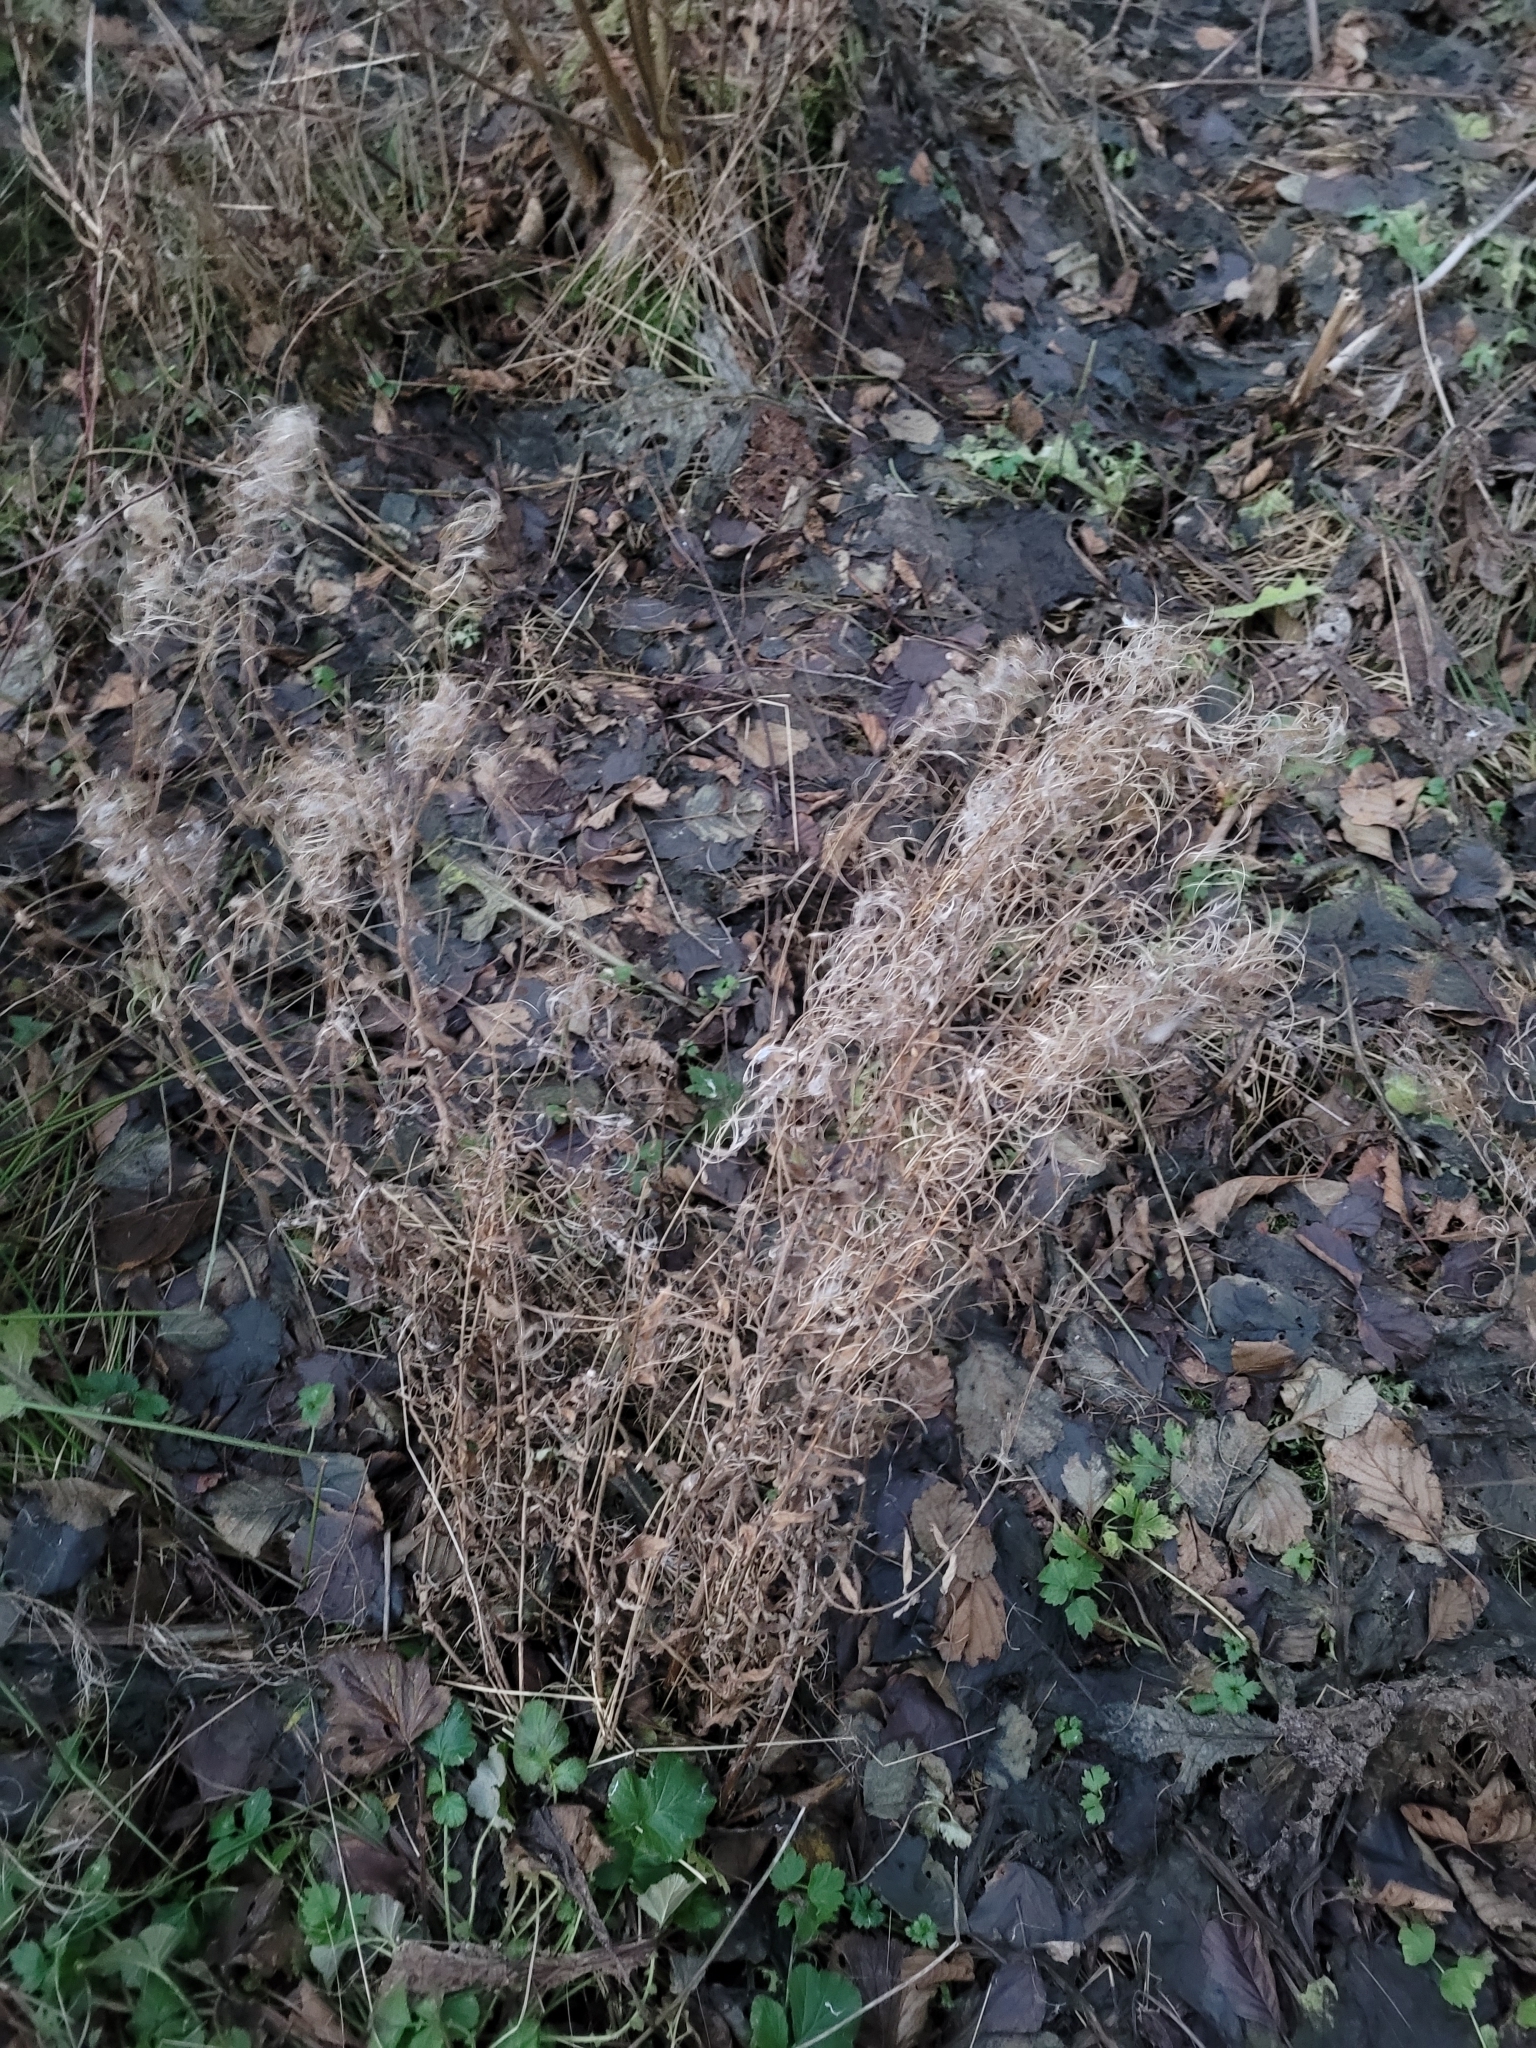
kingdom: Plantae
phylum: Tracheophyta
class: Magnoliopsida
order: Myrtales
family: Onagraceae
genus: Chamaenerion
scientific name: Chamaenerion angustifolium
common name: Fireweed
